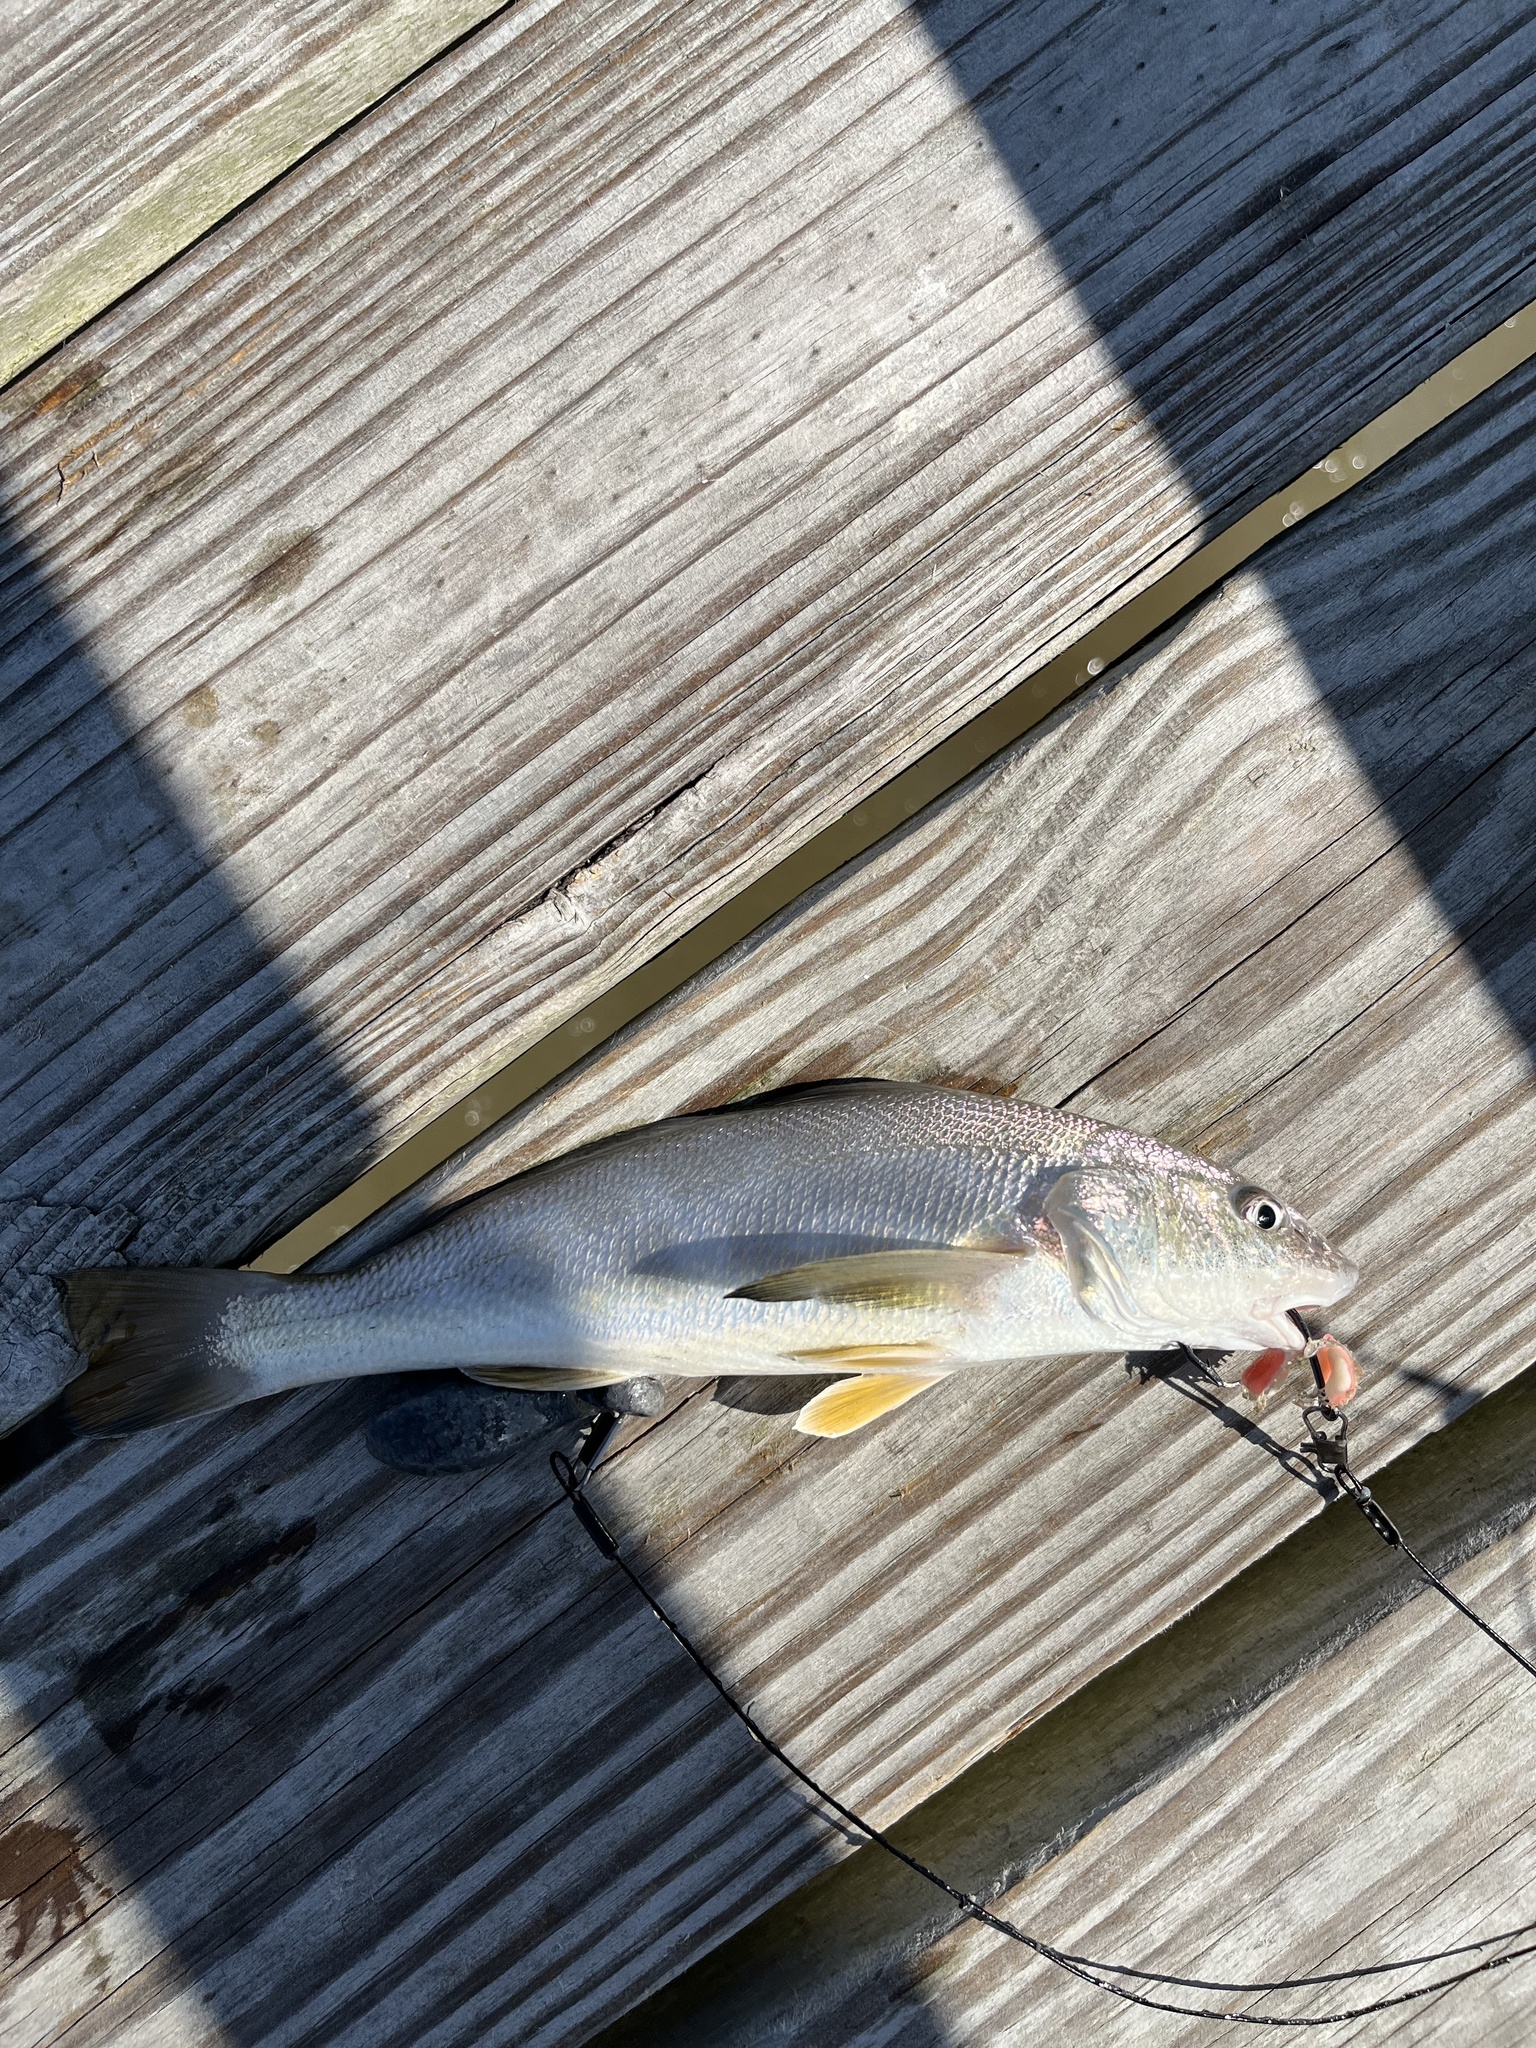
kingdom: Animalia
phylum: Chordata
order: Perciformes
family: Sciaenidae
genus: Menticirrhus
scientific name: Menticirrhus americanus
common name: Southern kingfish
